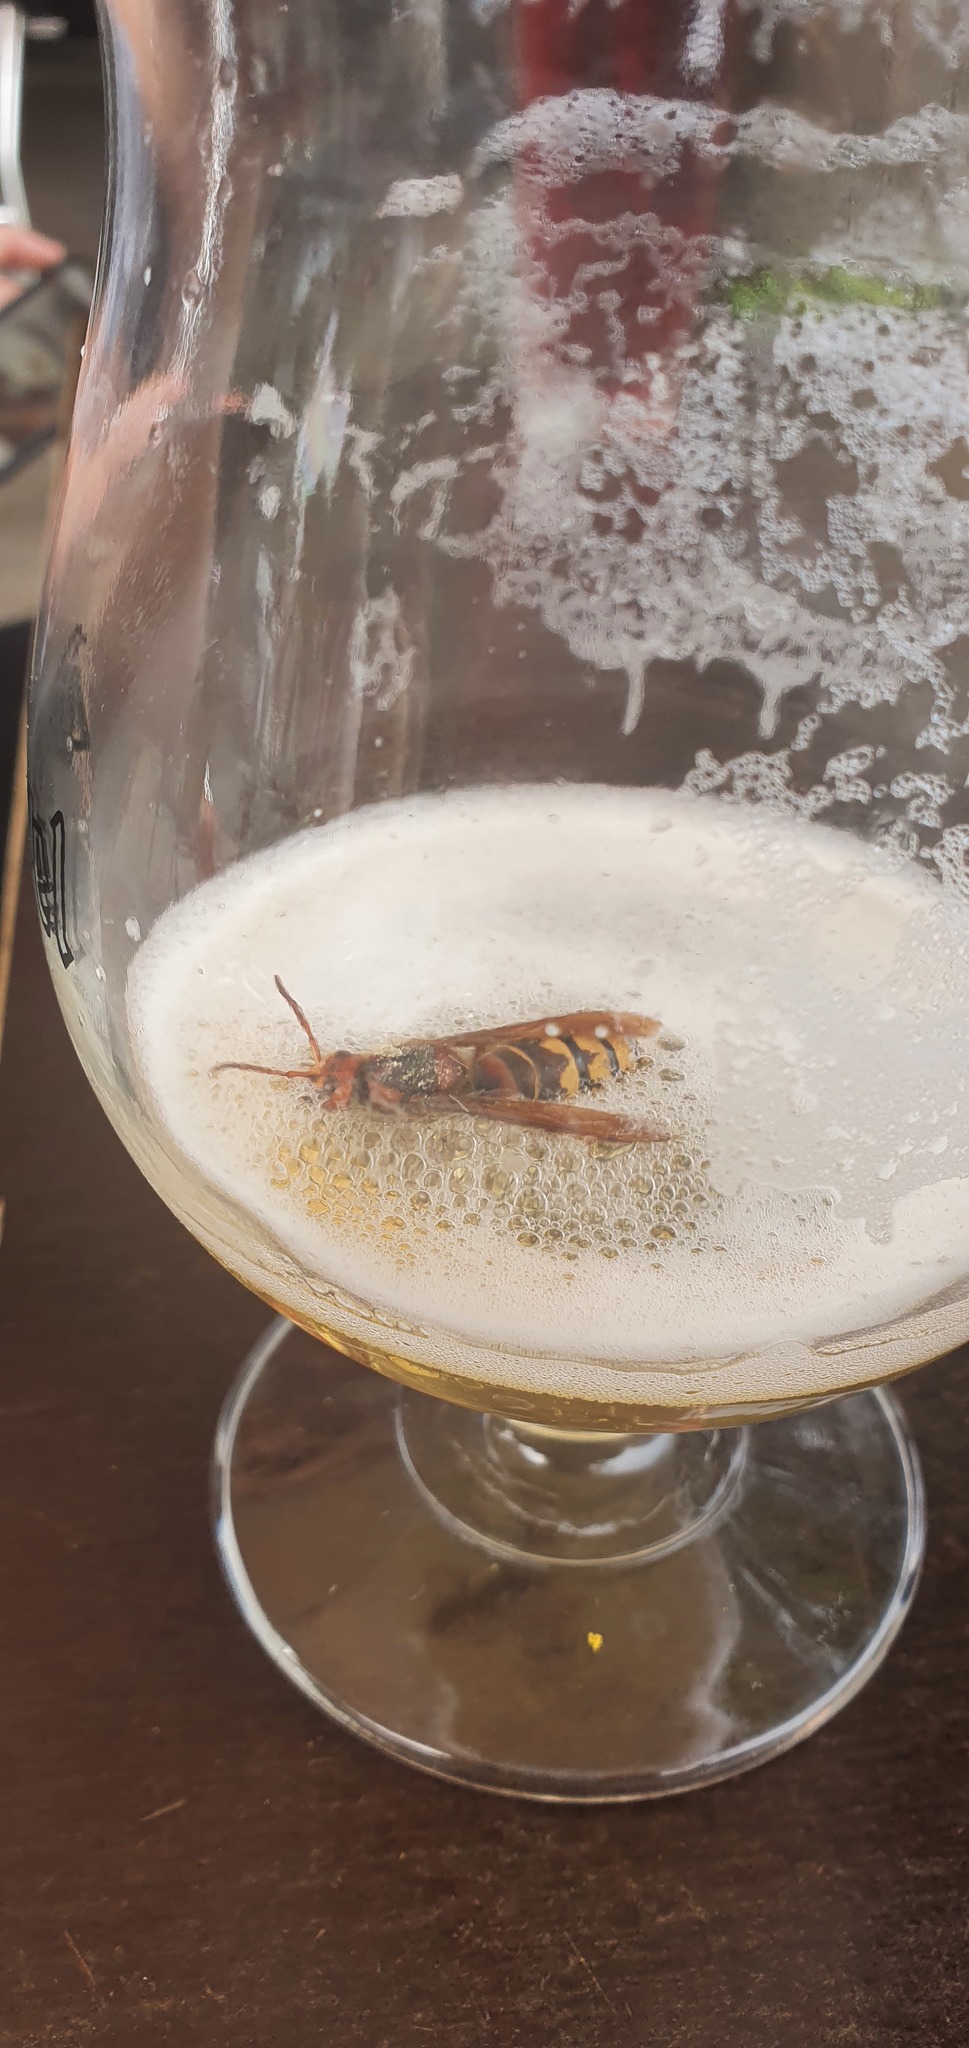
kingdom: Animalia
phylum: Arthropoda
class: Insecta
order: Hymenoptera
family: Vespidae
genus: Vespa
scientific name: Vespa crabro
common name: Hornet
